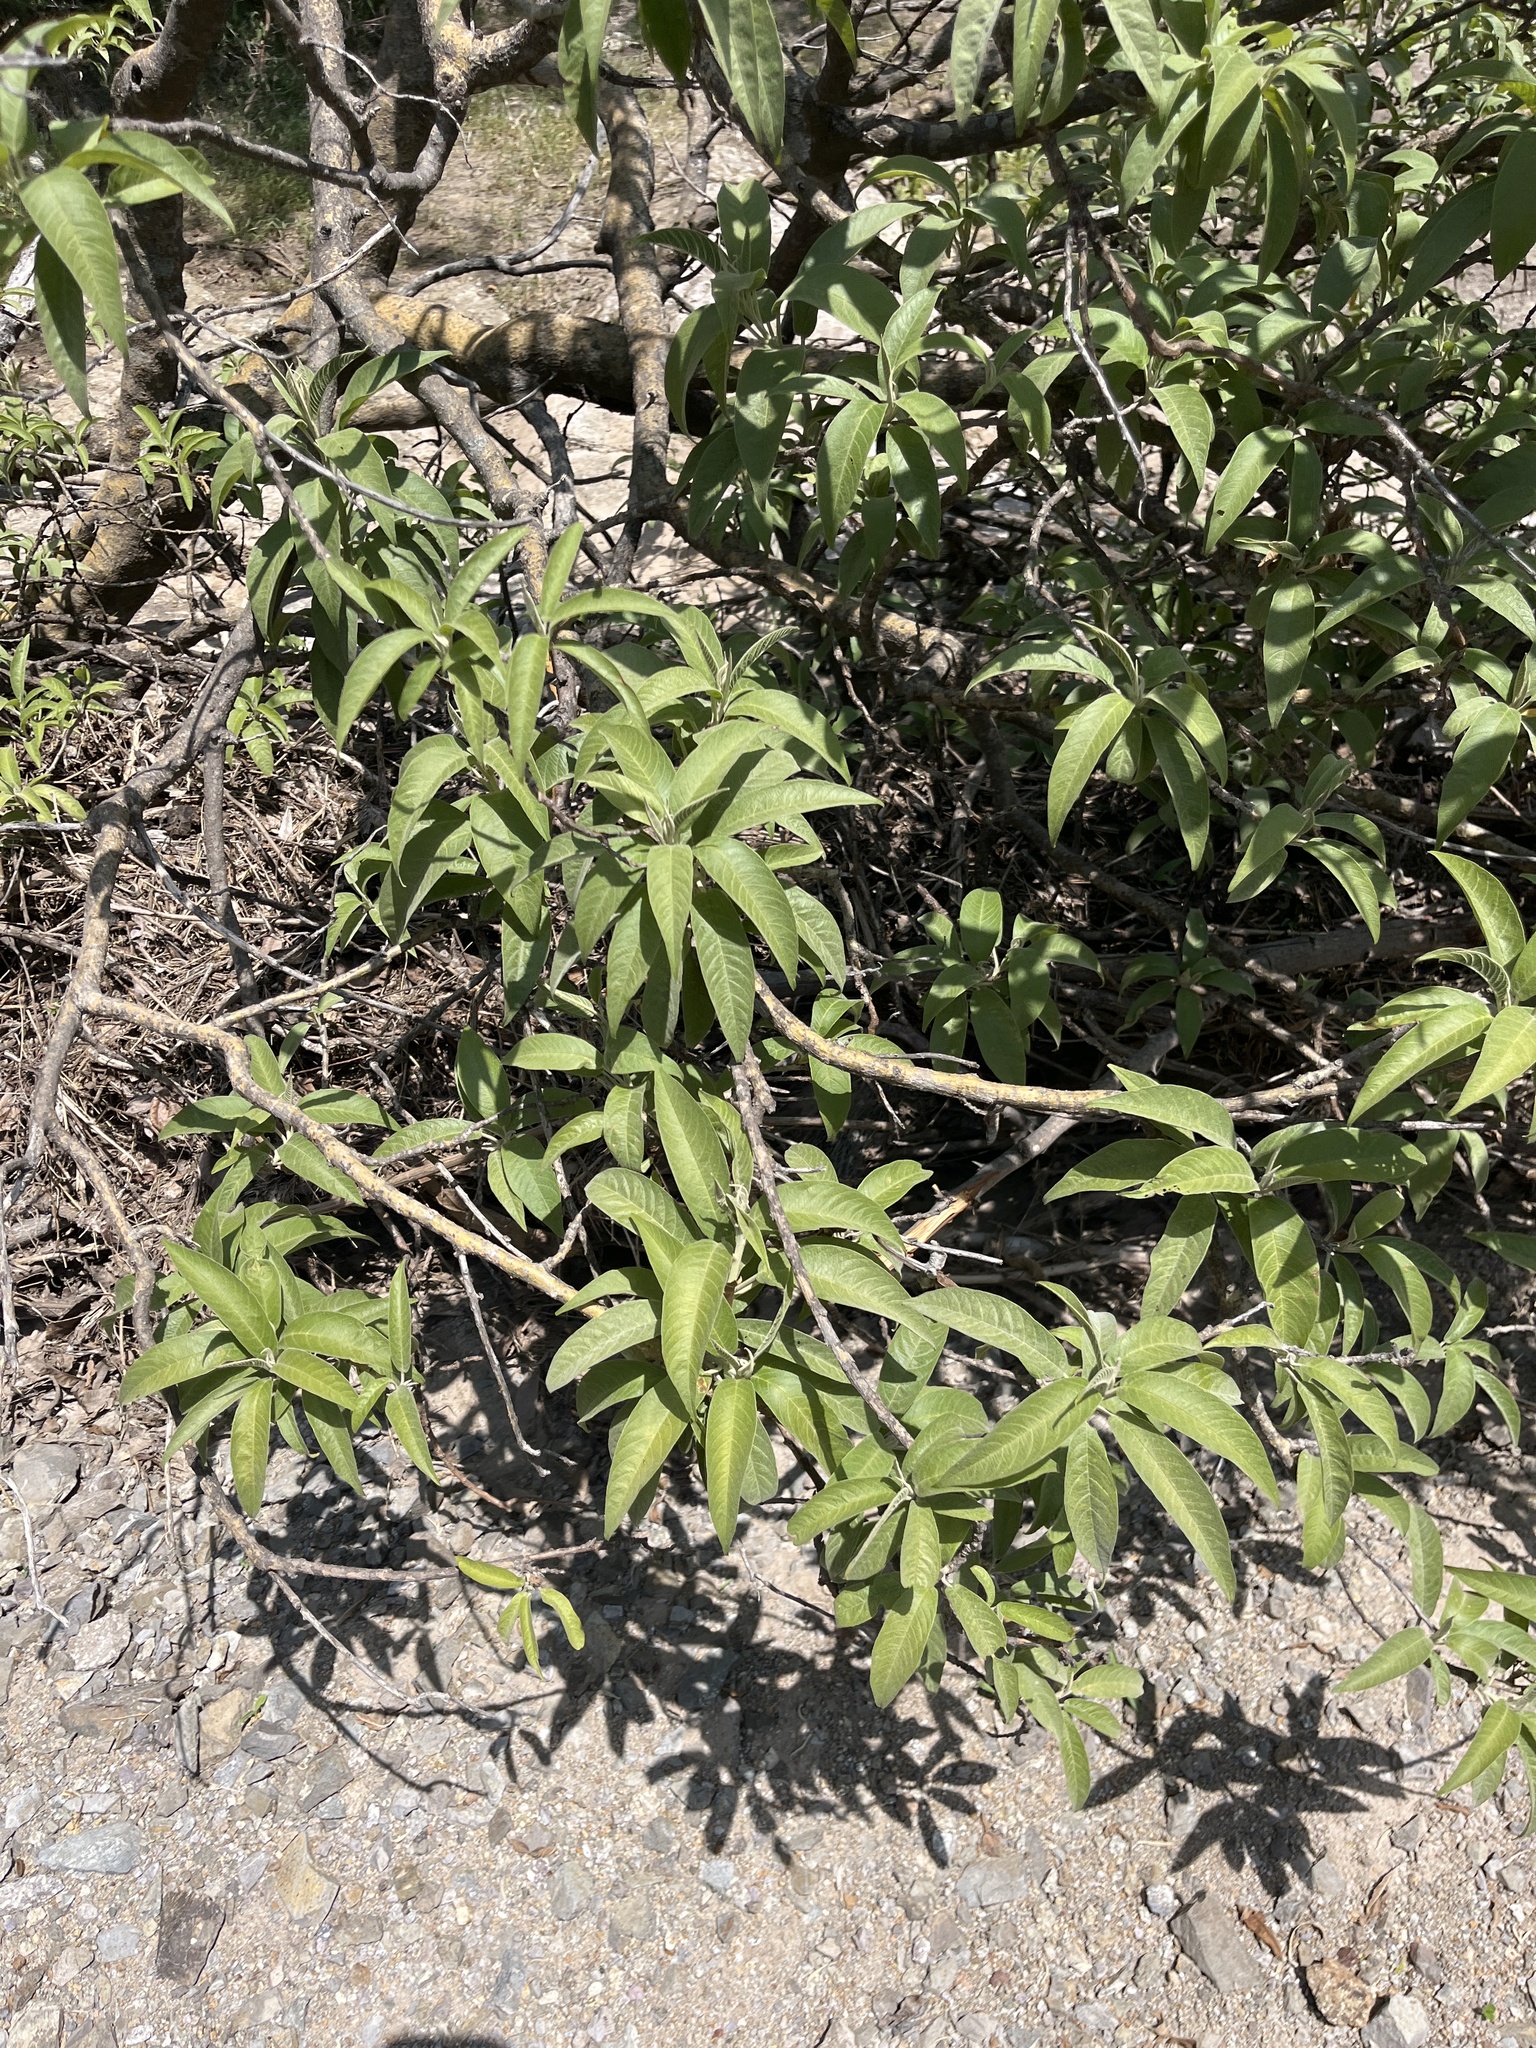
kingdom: Plantae
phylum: Tracheophyta
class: Magnoliopsida
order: Solanales
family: Convolvulaceae
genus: Ipomoea
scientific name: Ipomoea murucoides
